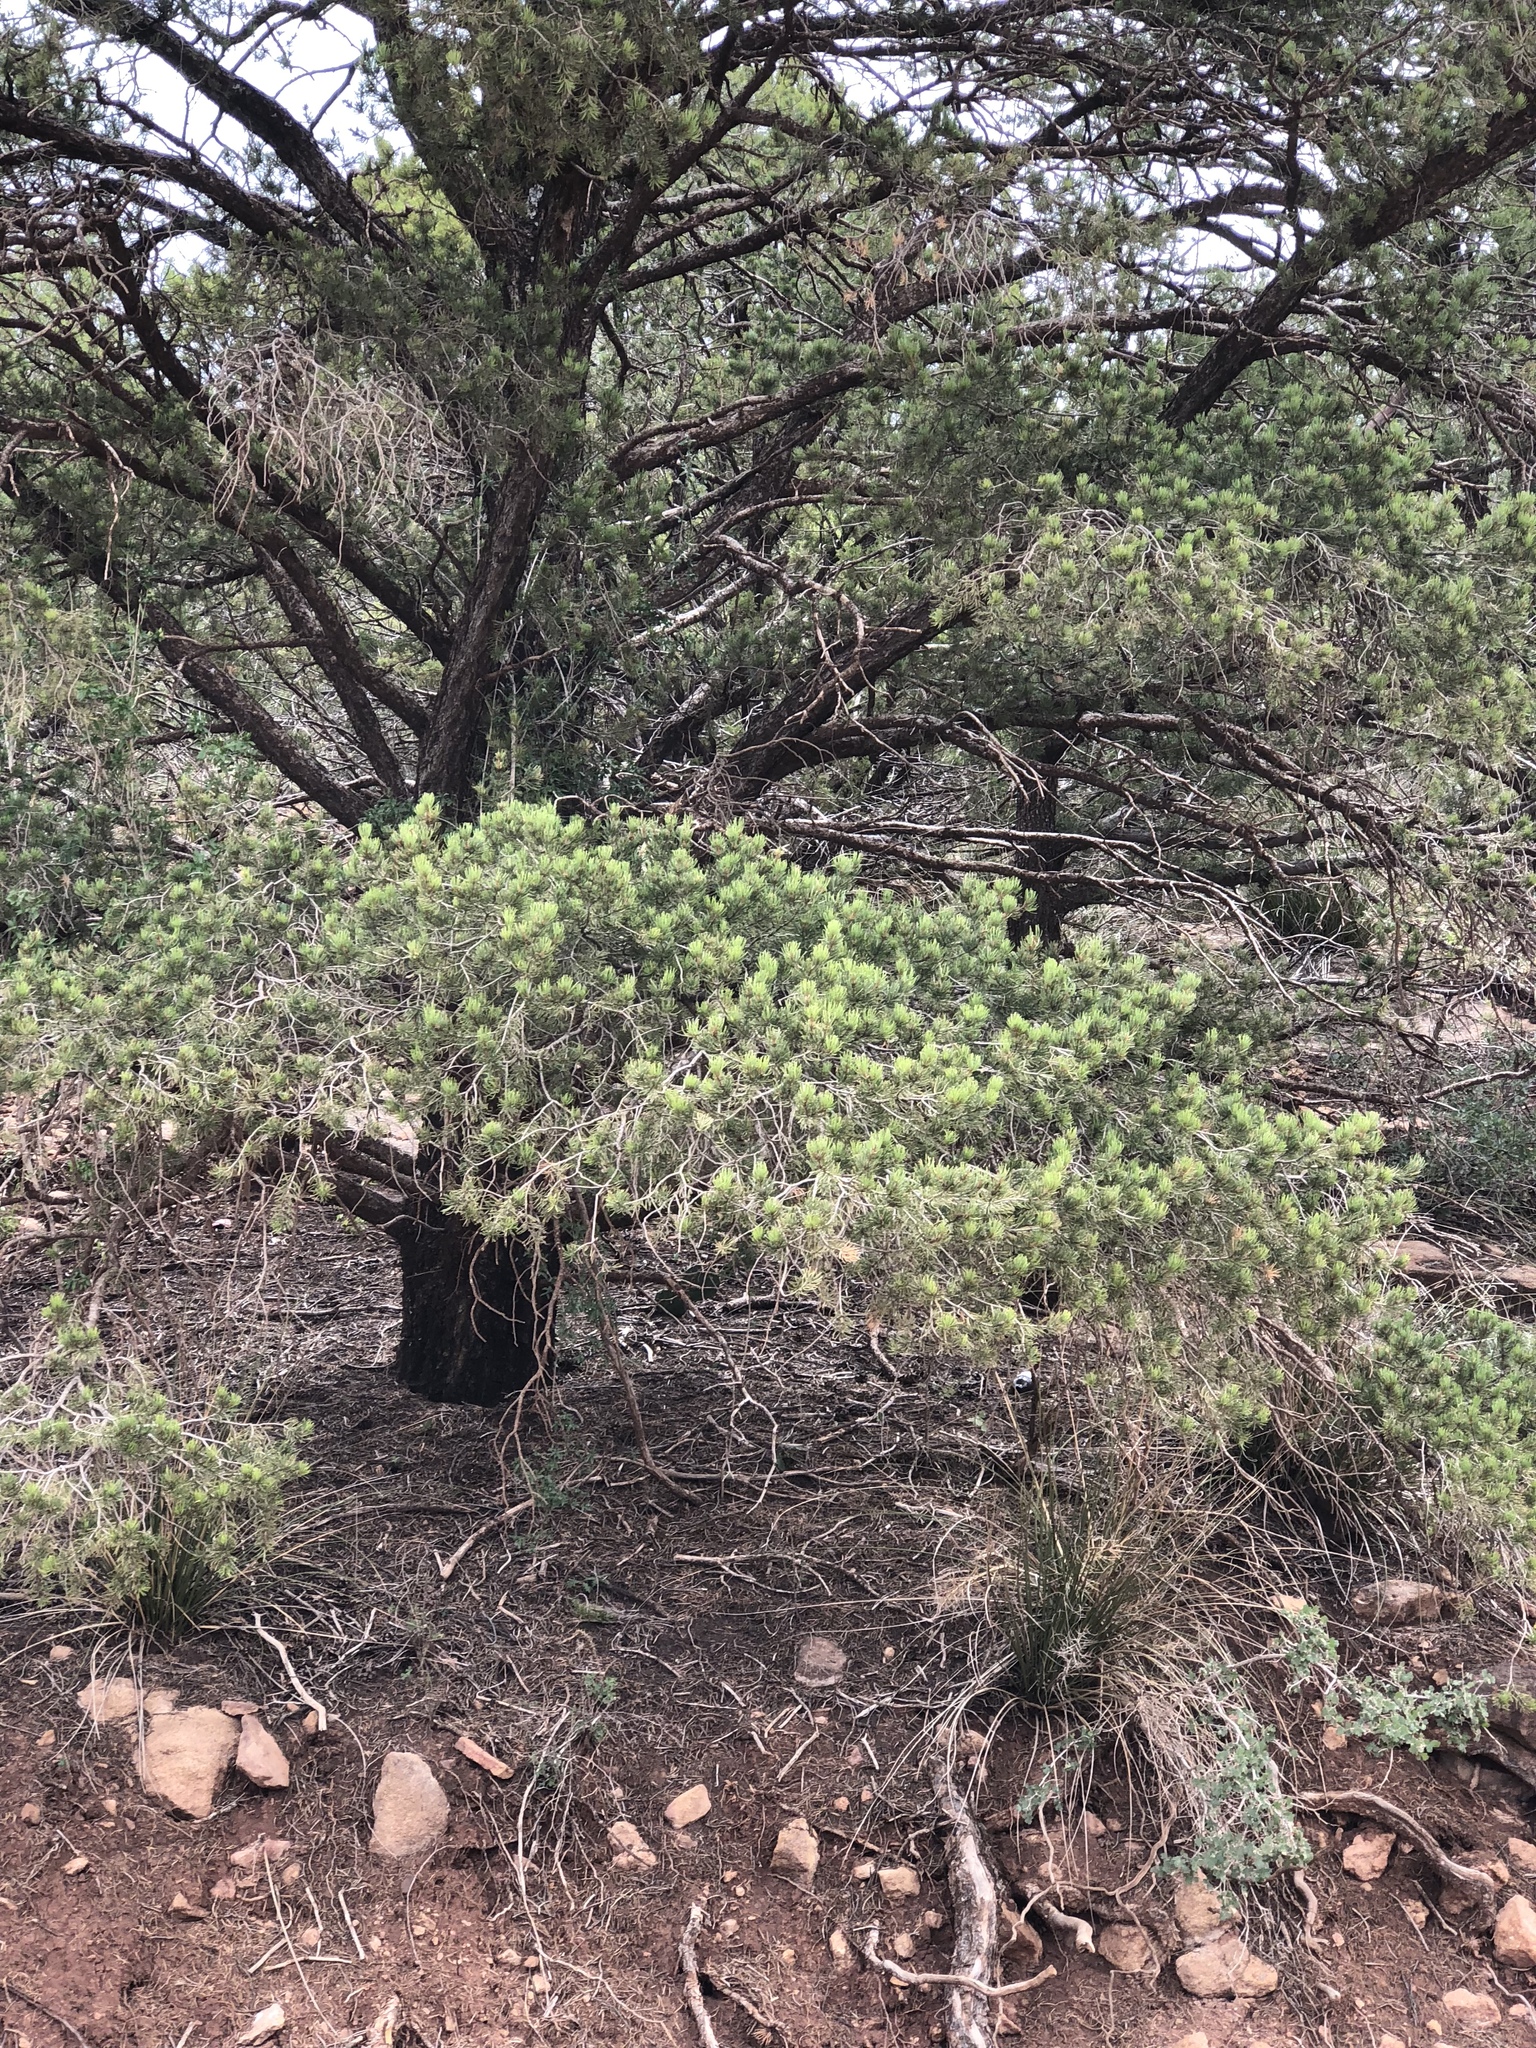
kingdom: Plantae
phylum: Tracheophyta
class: Pinopsida
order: Pinales
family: Pinaceae
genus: Pinus
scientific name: Pinus edulis
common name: Colorado pinyon
